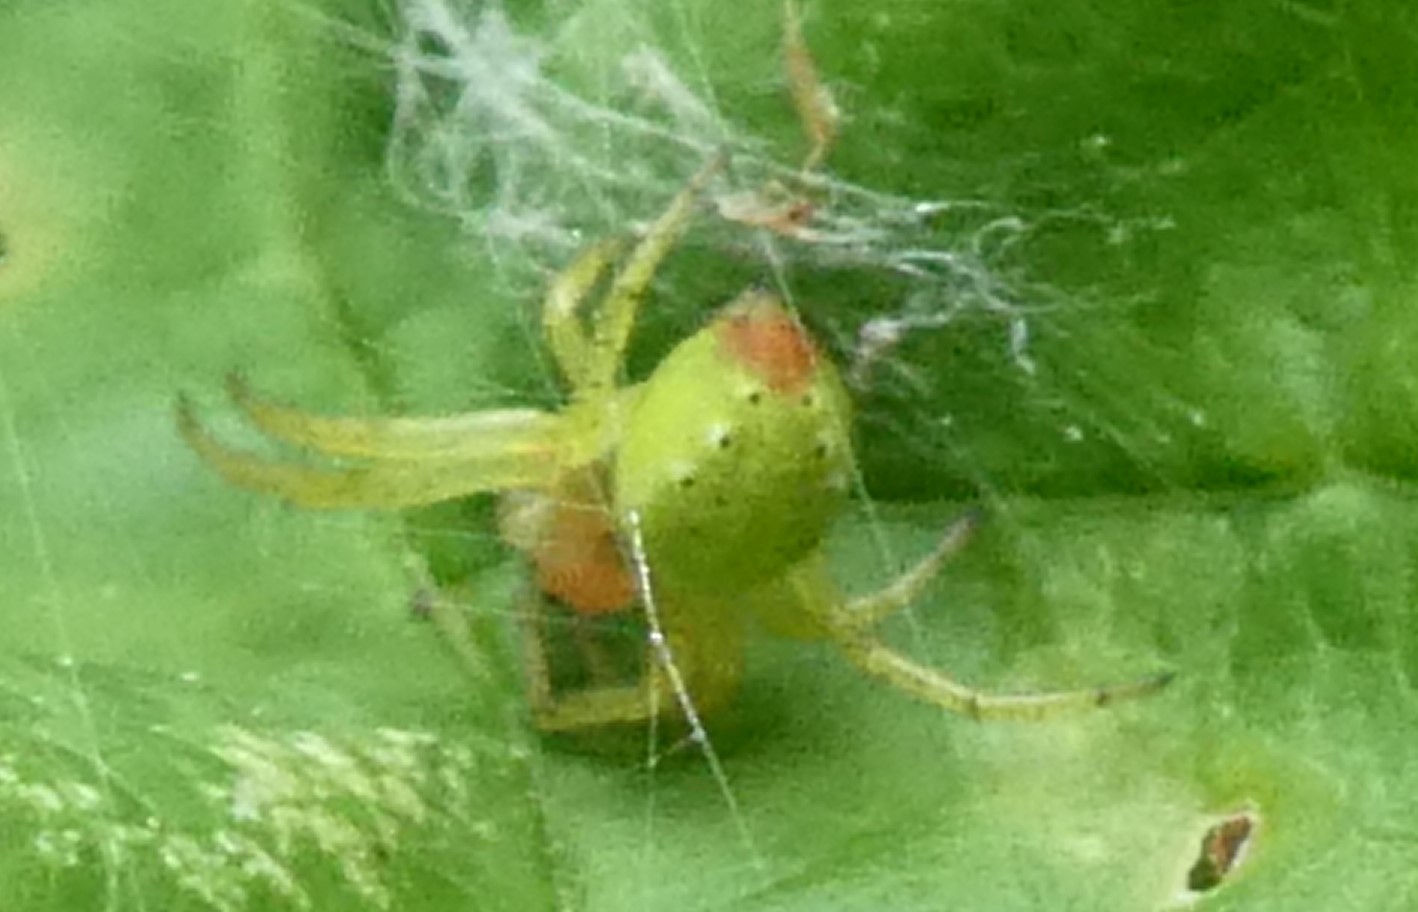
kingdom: Animalia
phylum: Arthropoda
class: Arachnida
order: Araneae
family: Araneidae
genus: Araniella
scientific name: Araniella
